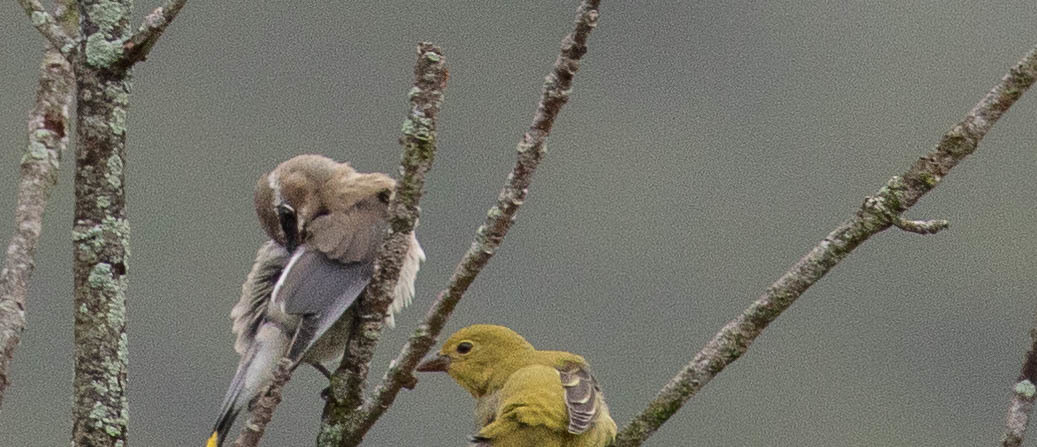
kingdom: Animalia
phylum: Chordata
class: Aves
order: Passeriformes
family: Cardinalidae
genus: Piranga
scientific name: Piranga olivacea
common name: Scarlet tanager
